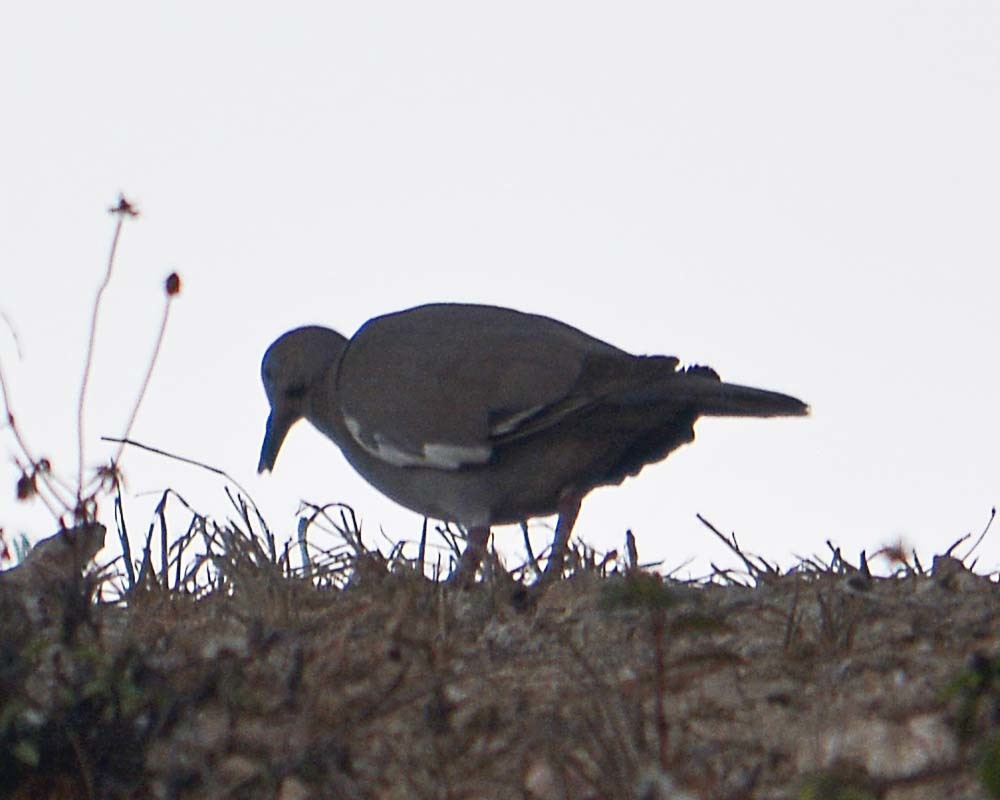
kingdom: Animalia
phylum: Chordata
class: Aves
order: Columbiformes
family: Columbidae
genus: Zenaida
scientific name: Zenaida asiatica
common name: White-winged dove
